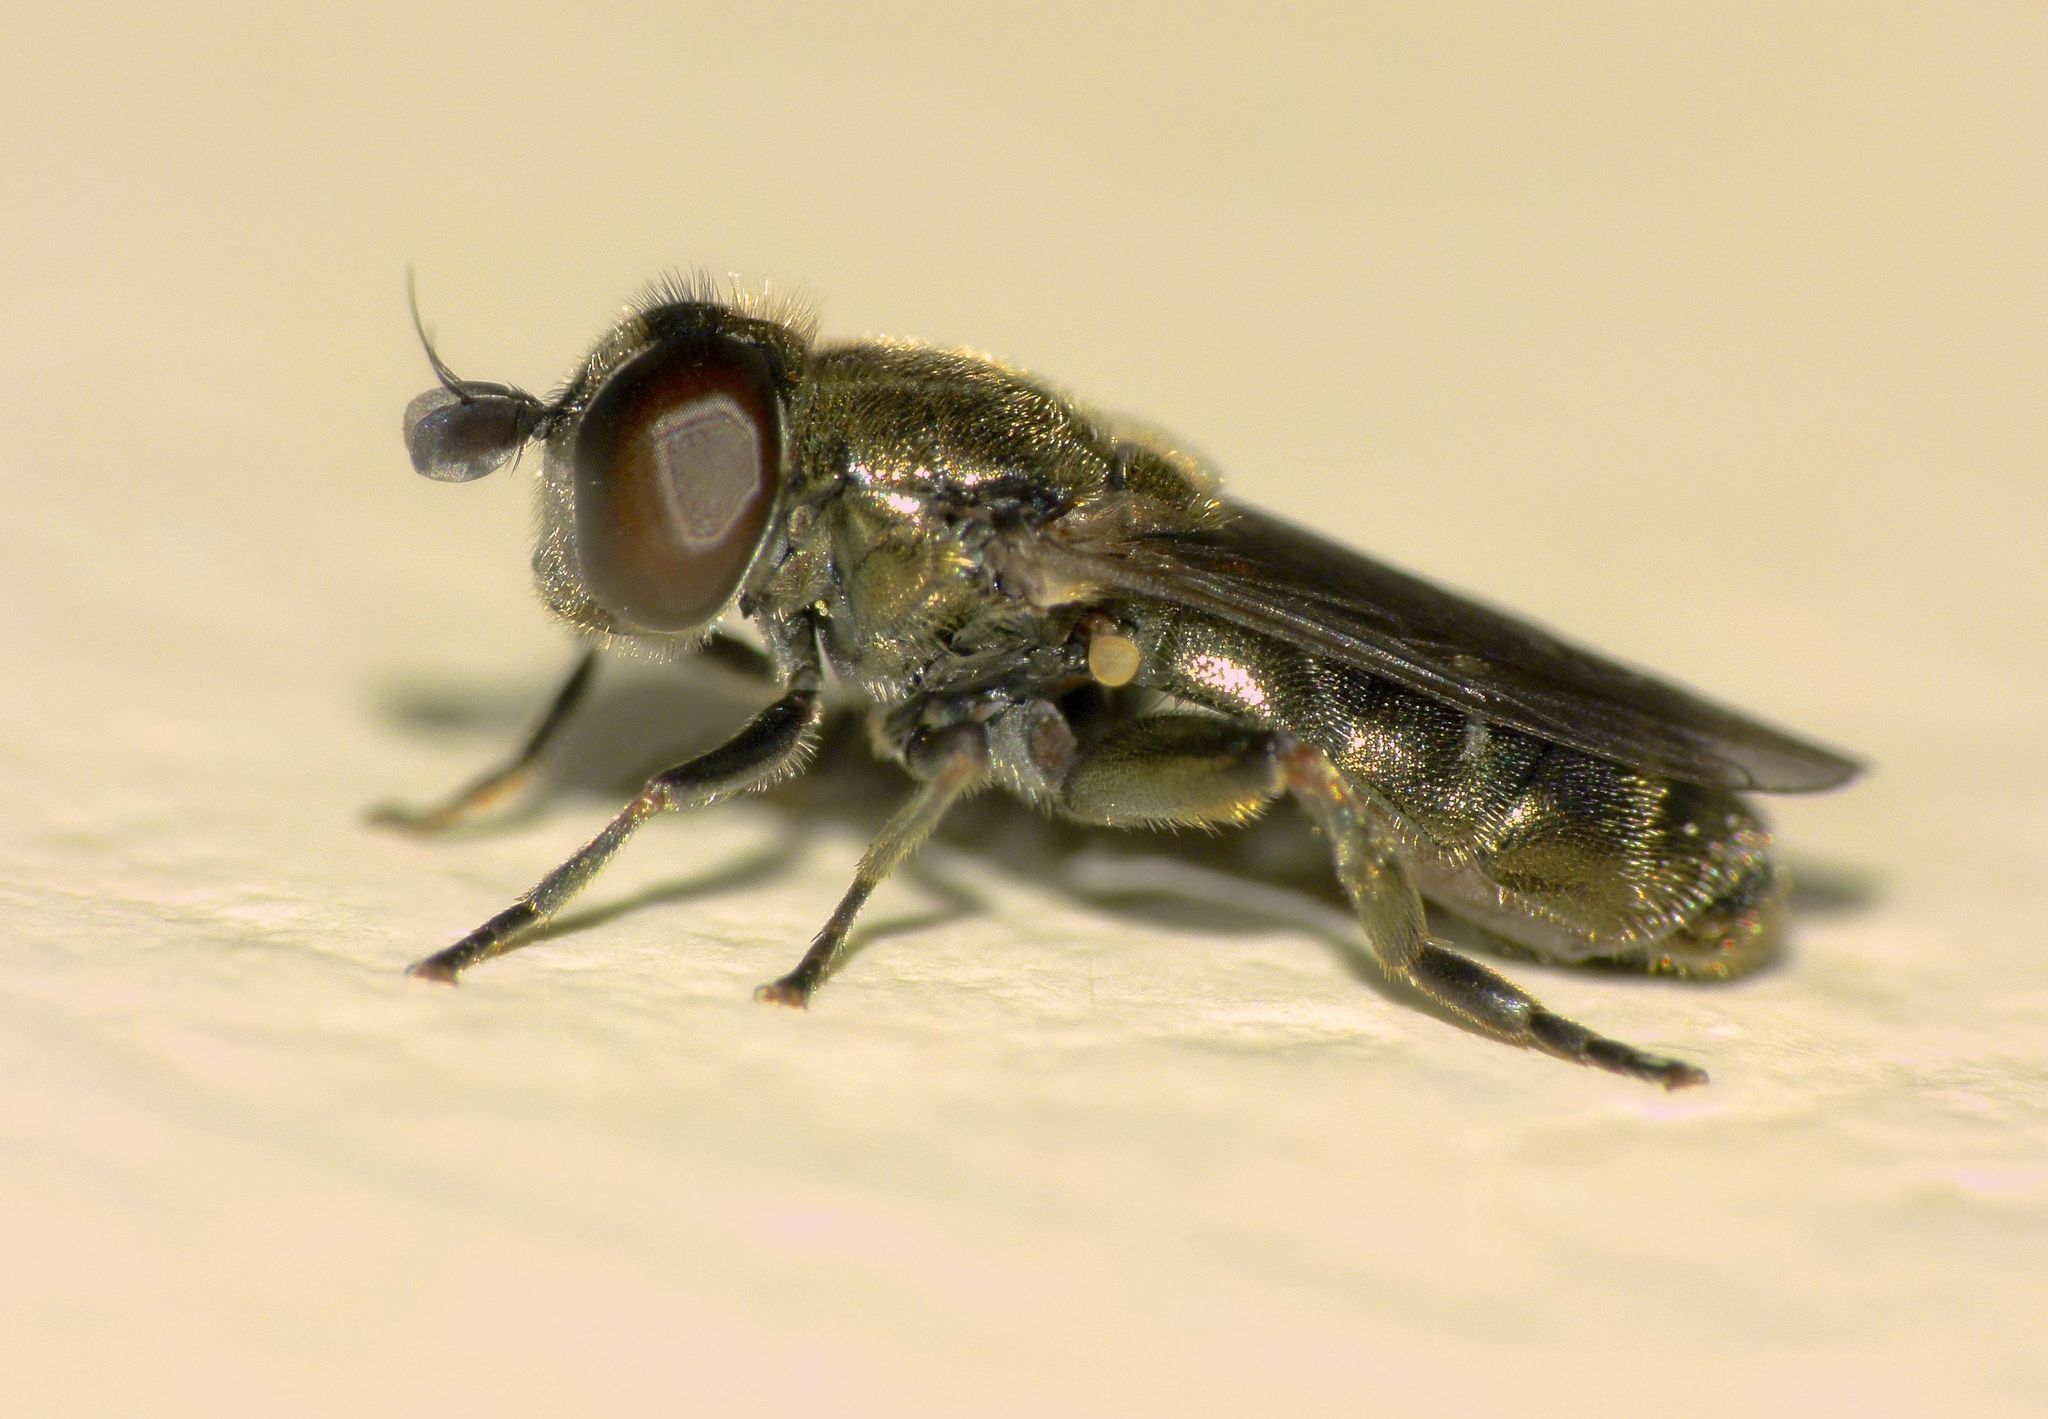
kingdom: Animalia
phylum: Arthropoda
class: Insecta
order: Diptera
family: Syrphidae
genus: Eumerus
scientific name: Eumerus
